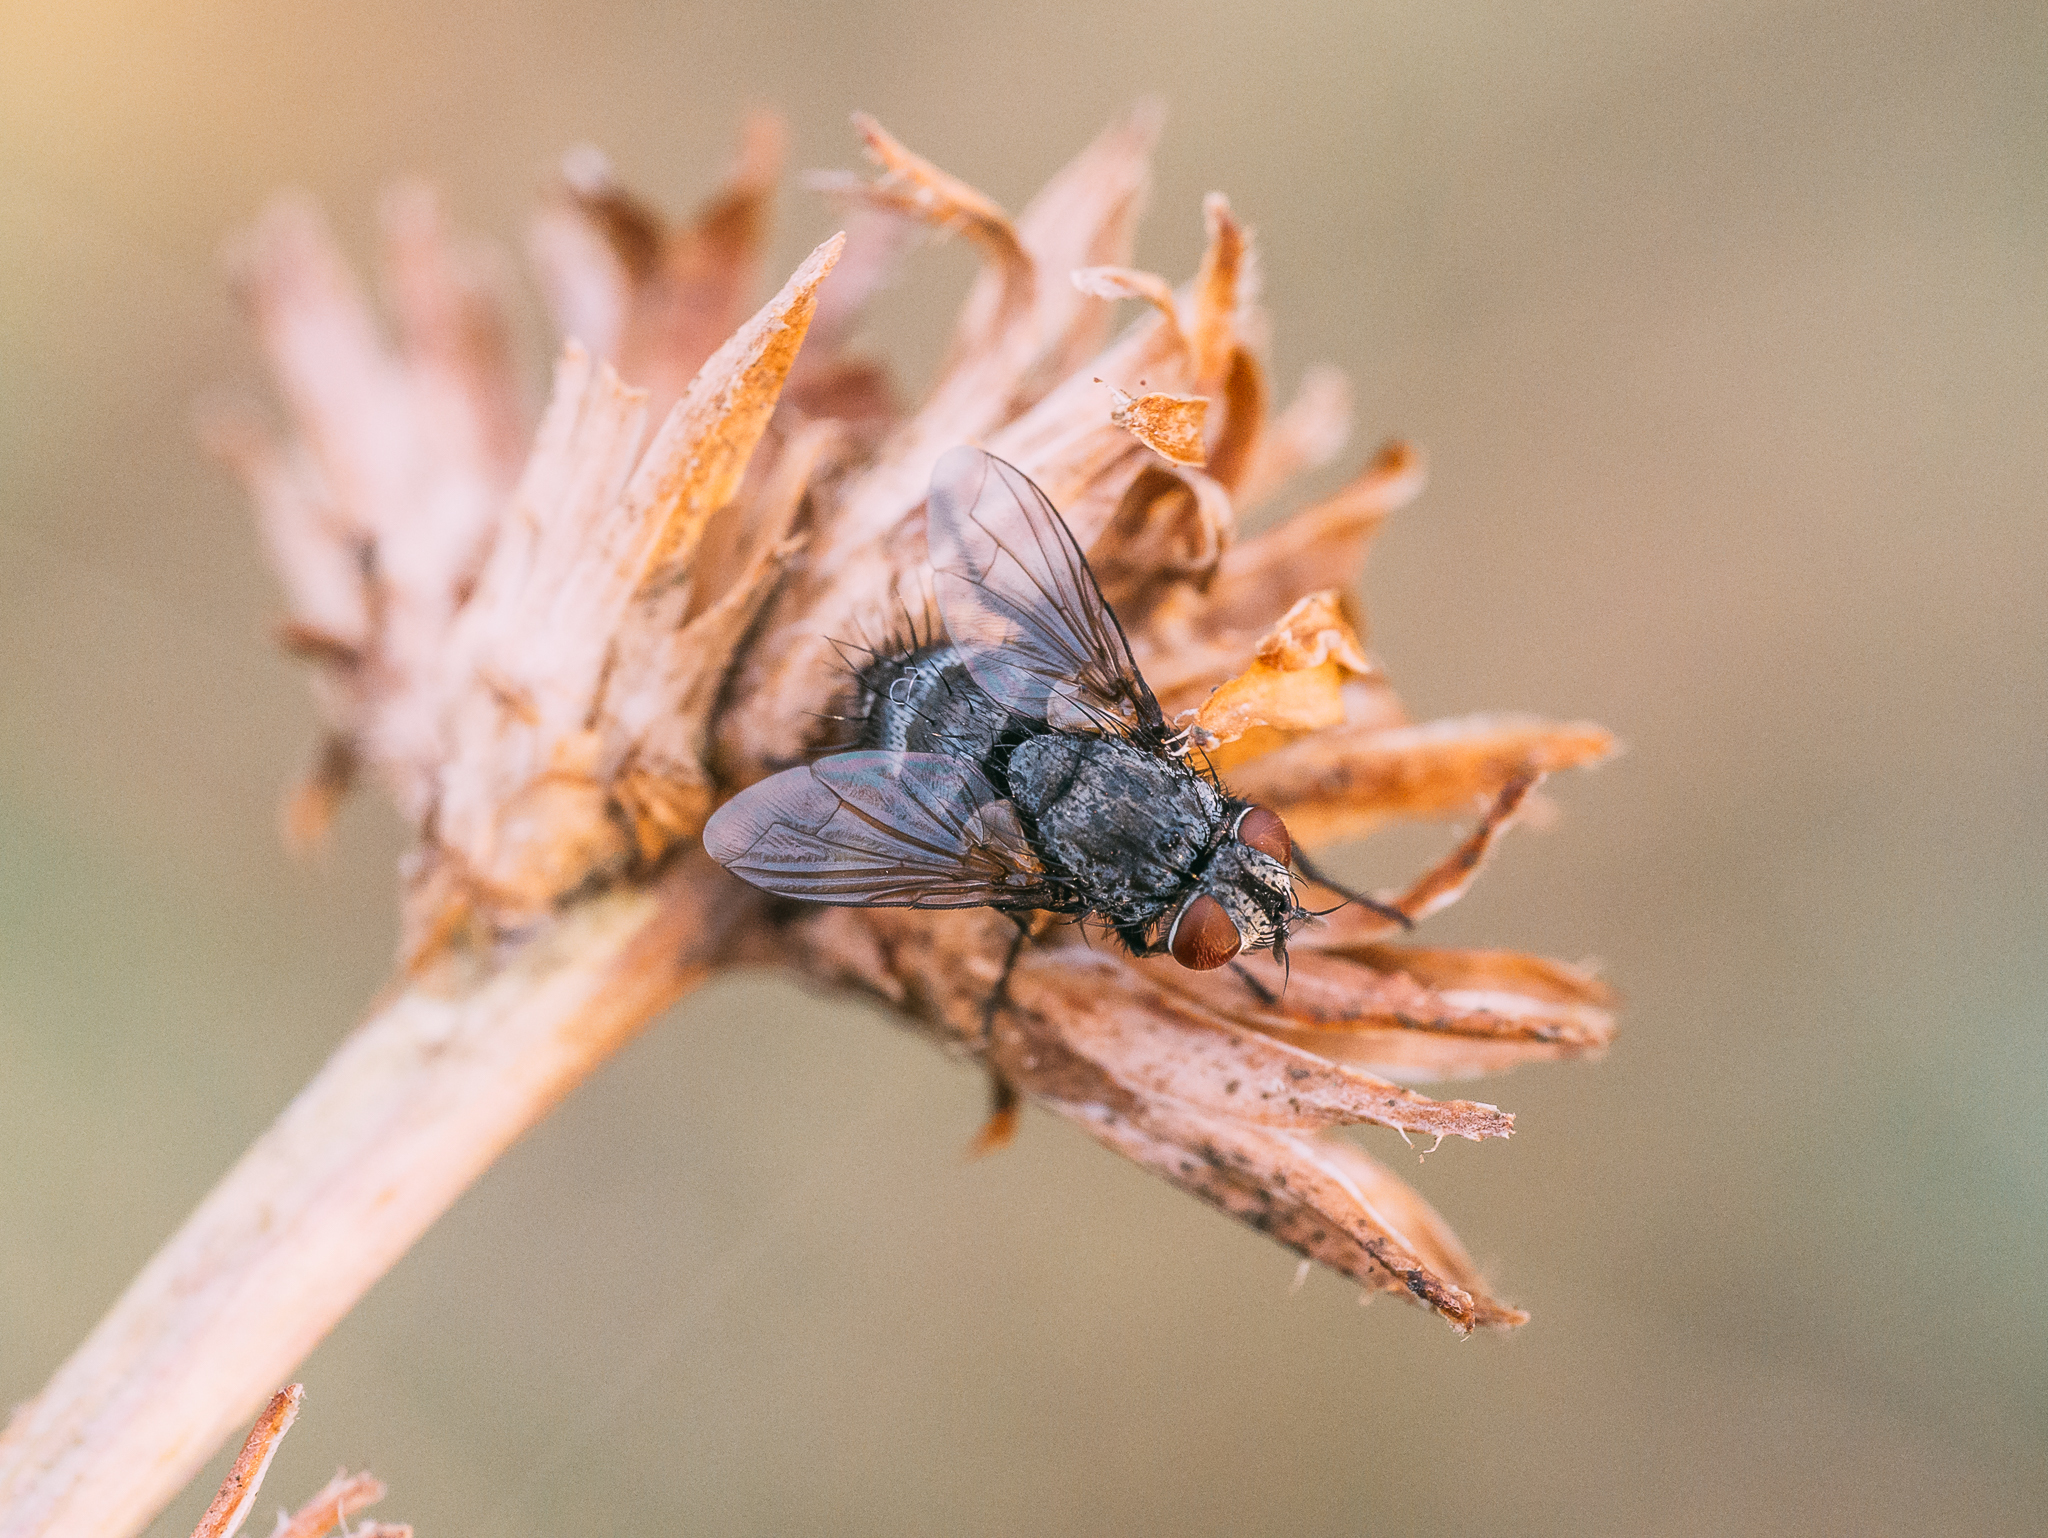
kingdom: Animalia
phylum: Arthropoda
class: Insecta
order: Diptera
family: Tachinidae
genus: Platymya
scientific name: Platymya fimbriata
